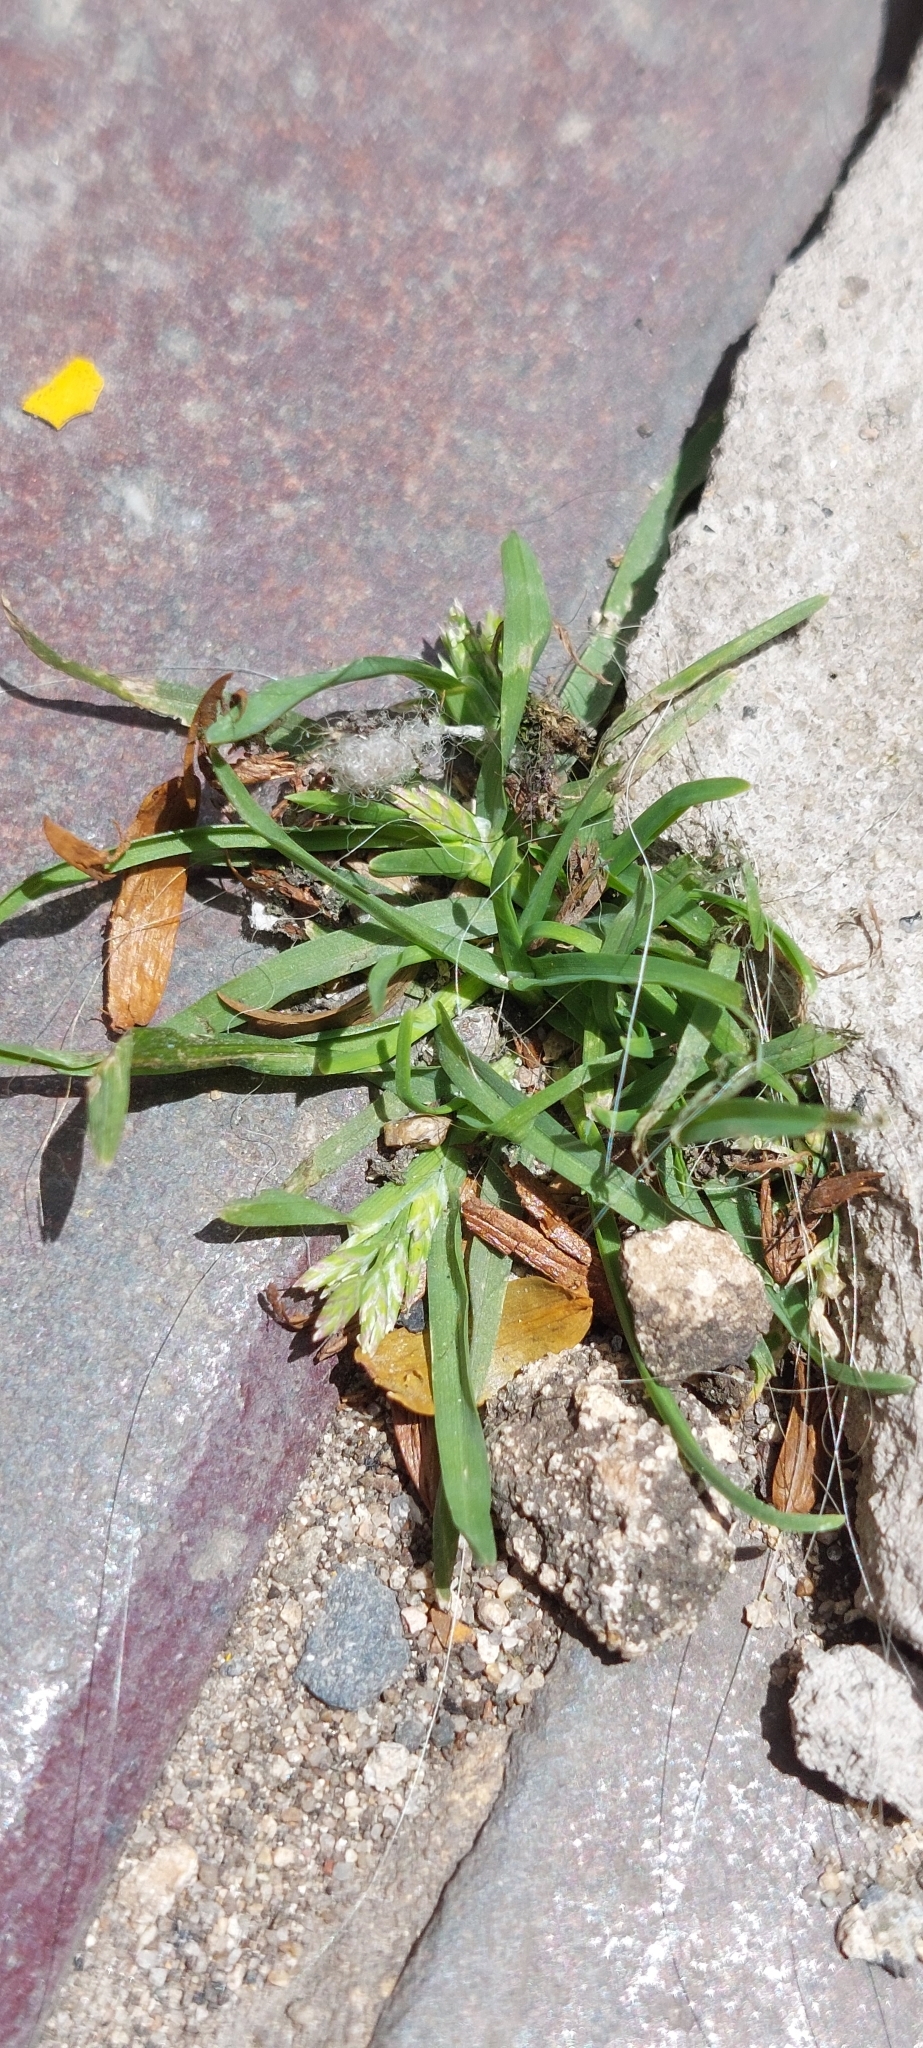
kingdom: Plantae
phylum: Tracheophyta
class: Liliopsida
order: Poales
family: Poaceae
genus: Poa
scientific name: Poa annua
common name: Annual bluegrass
